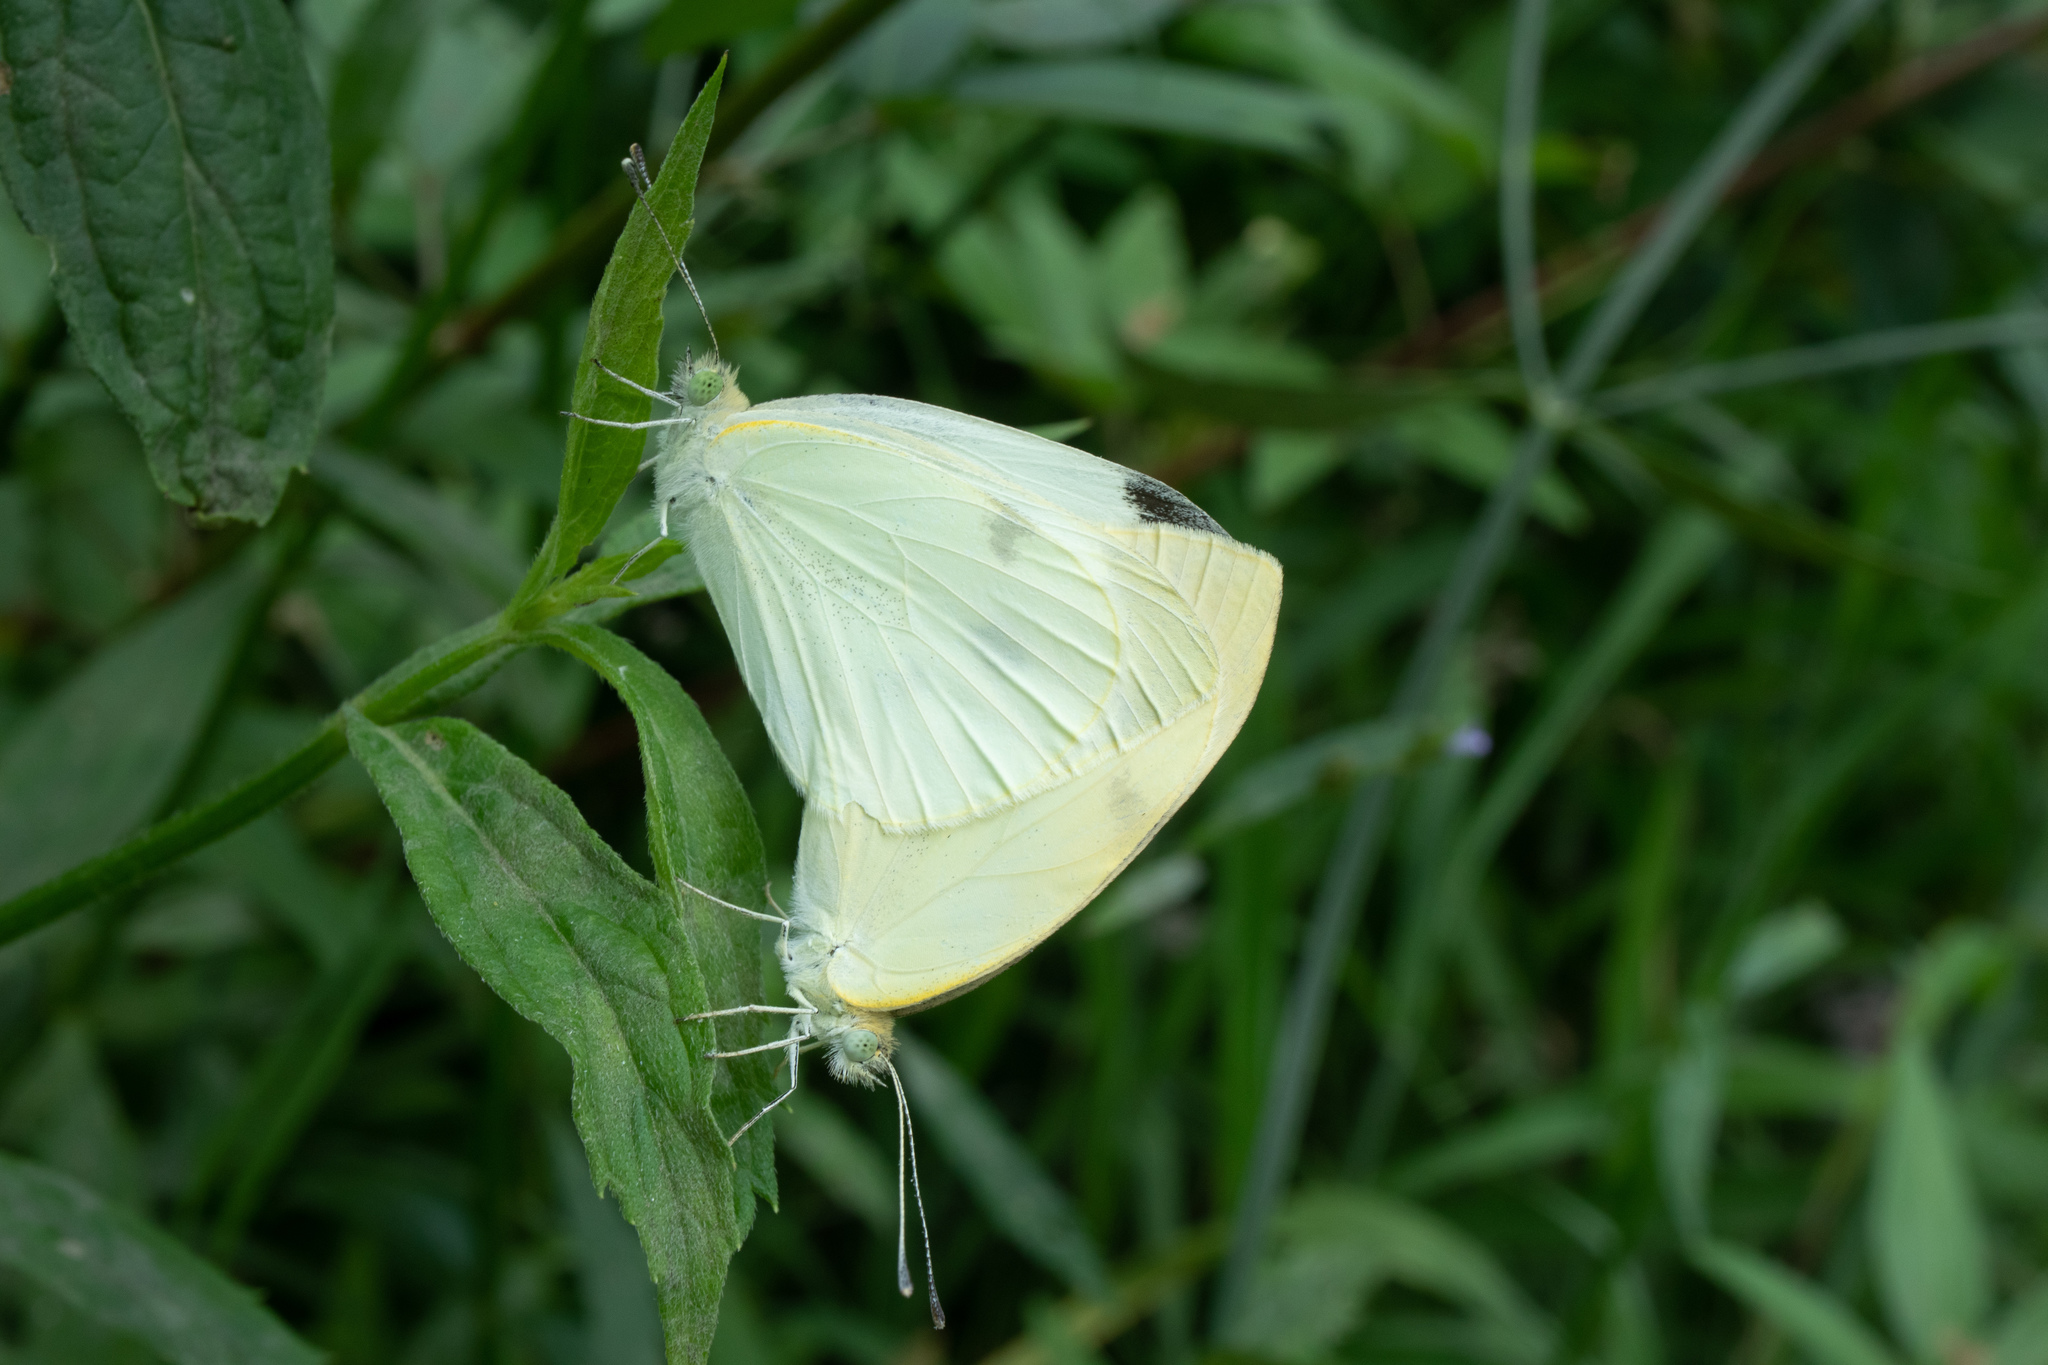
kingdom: Animalia
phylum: Arthropoda
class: Insecta
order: Lepidoptera
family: Pieridae
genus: Pieris
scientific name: Pieris rapae
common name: Small white
